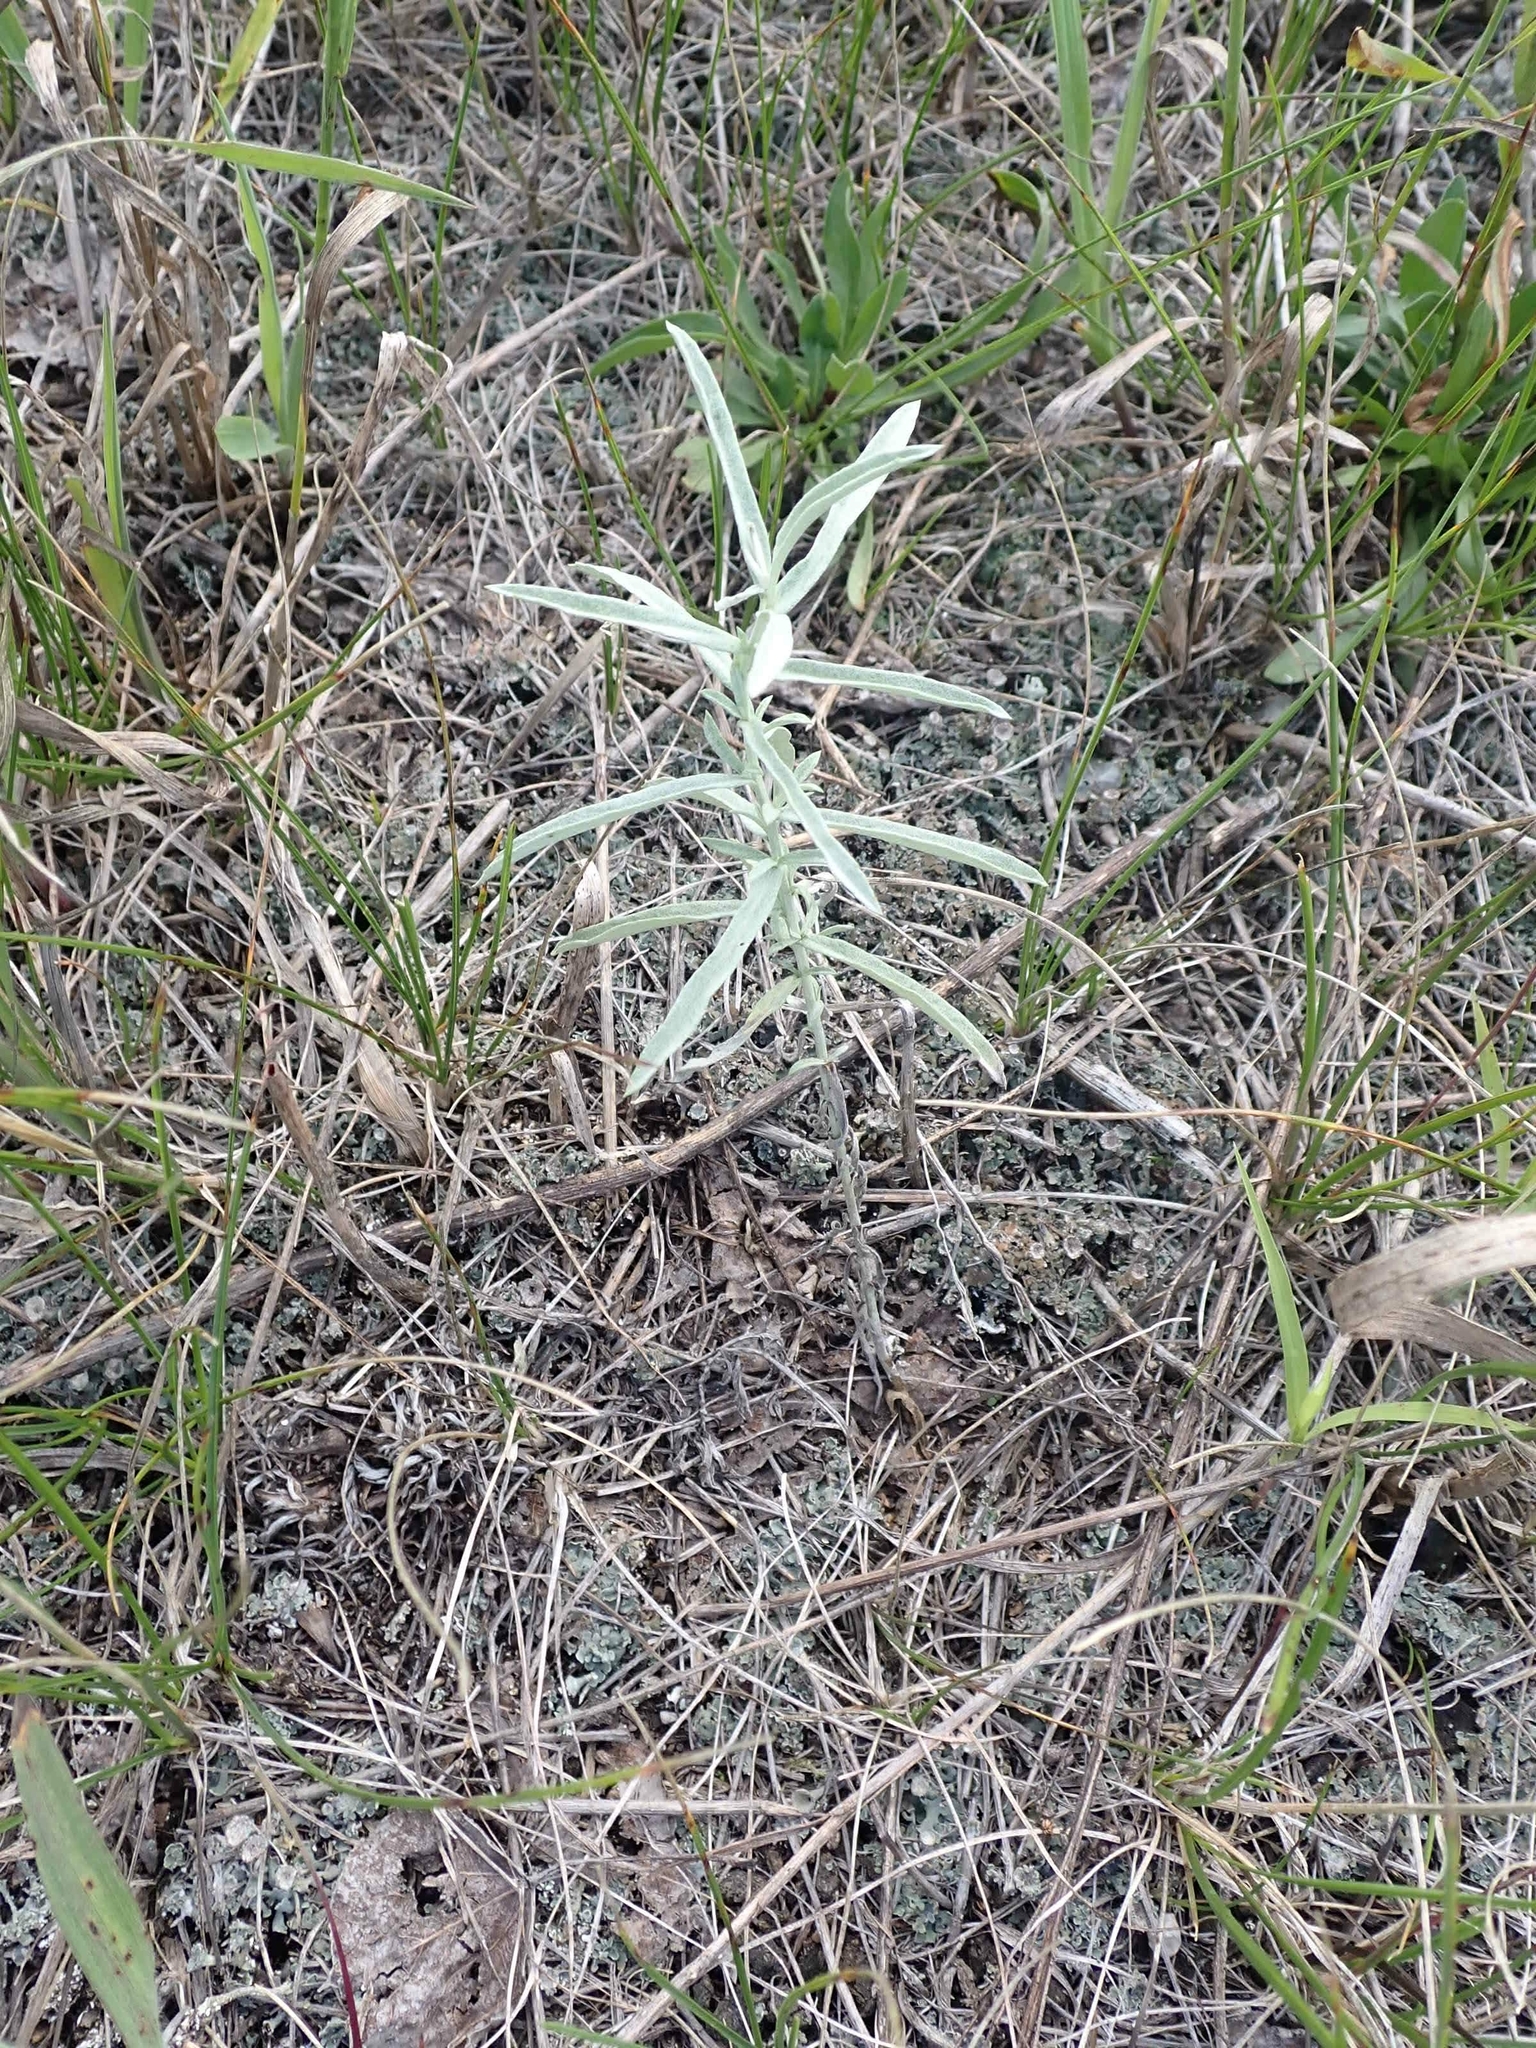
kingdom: Plantae
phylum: Tracheophyta
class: Magnoliopsida
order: Asterales
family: Asteraceae
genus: Artemisia
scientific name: Artemisia ludoviciana
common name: Western mugwort
